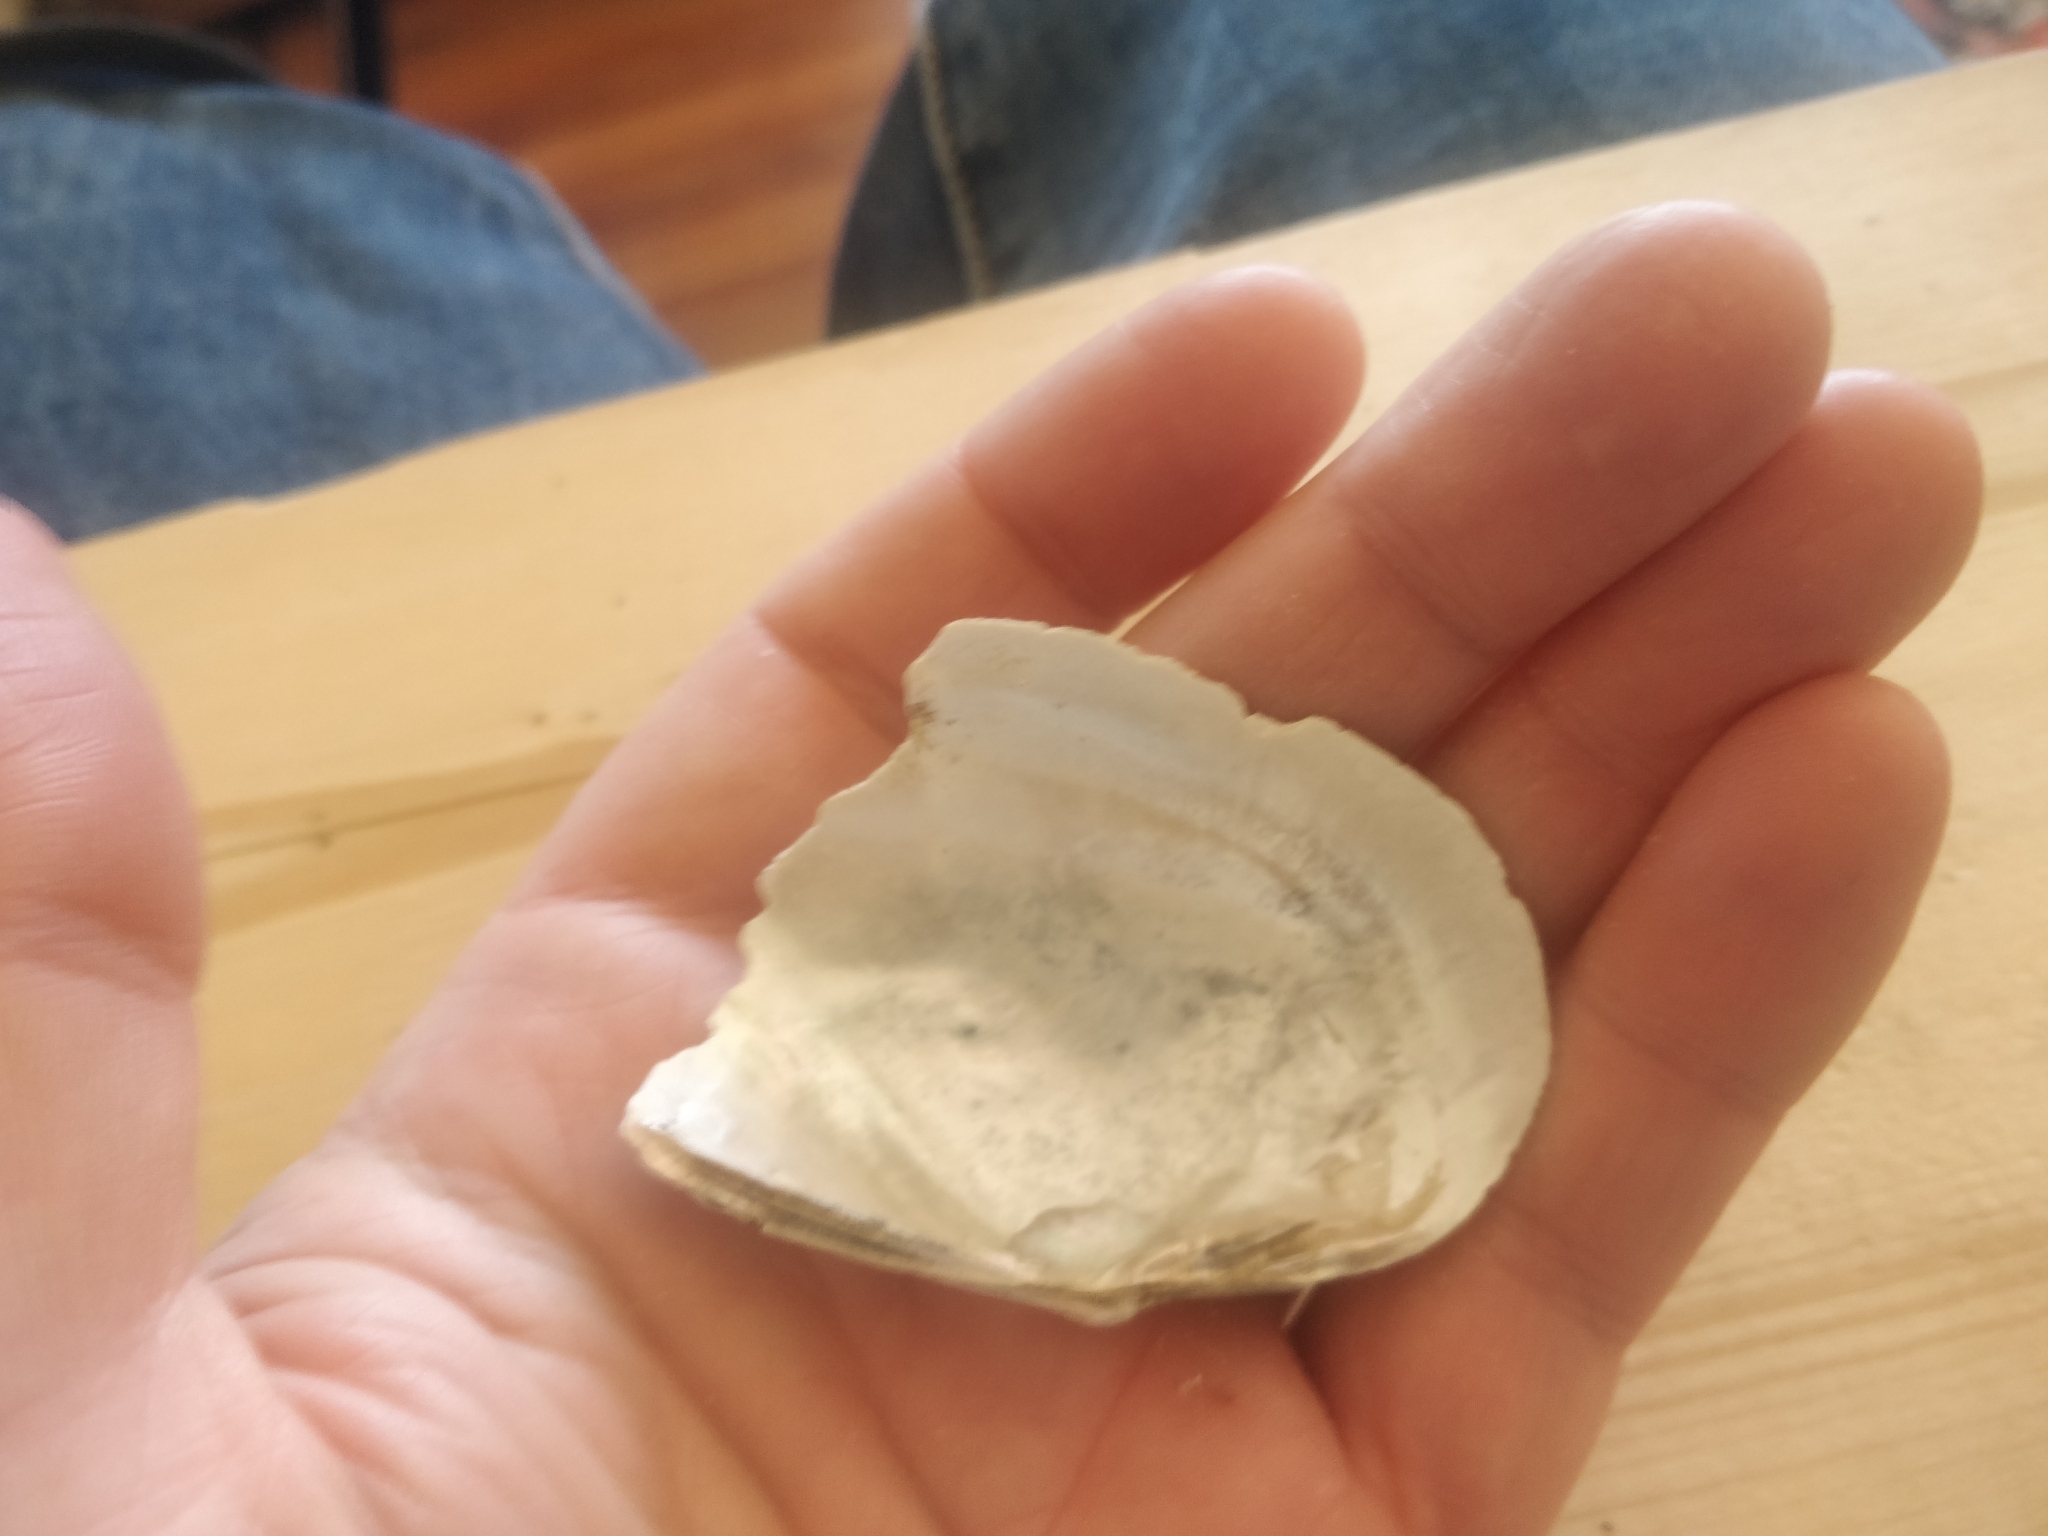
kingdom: Animalia
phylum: Mollusca
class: Bivalvia
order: Unionida
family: Unionidae
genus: Lasmigona
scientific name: Lasmigona compressa
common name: Creek heelsplitter
